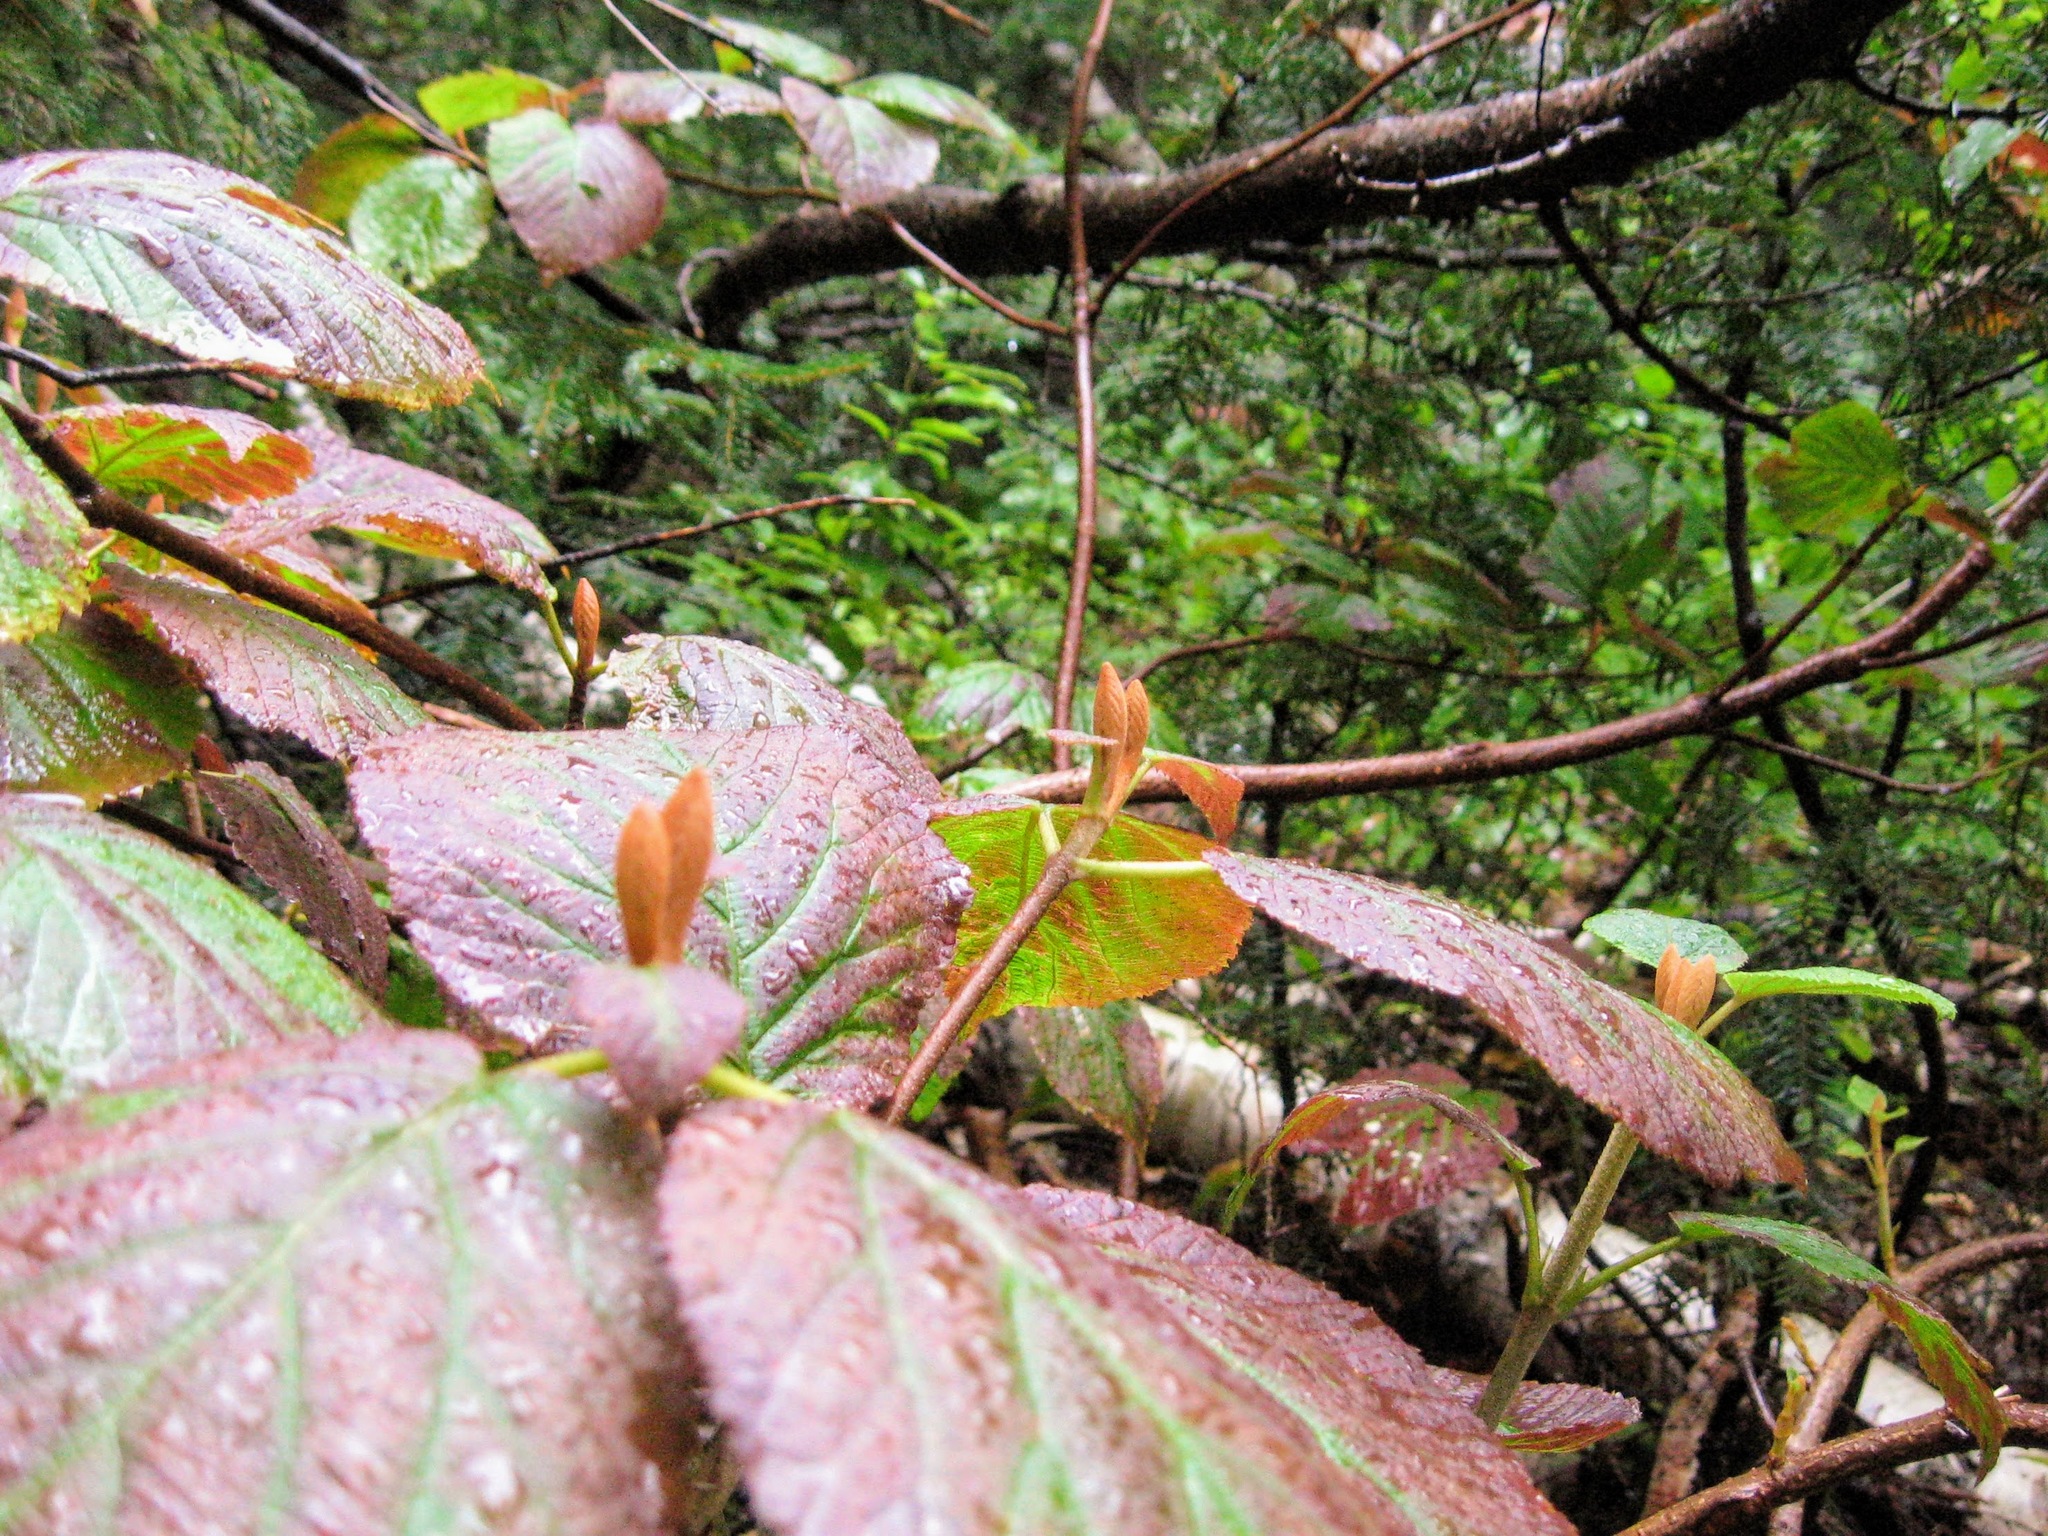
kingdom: Plantae
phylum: Tracheophyta
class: Magnoliopsida
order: Dipsacales
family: Viburnaceae
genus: Viburnum
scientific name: Viburnum lantanoides
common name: Hobblebush
